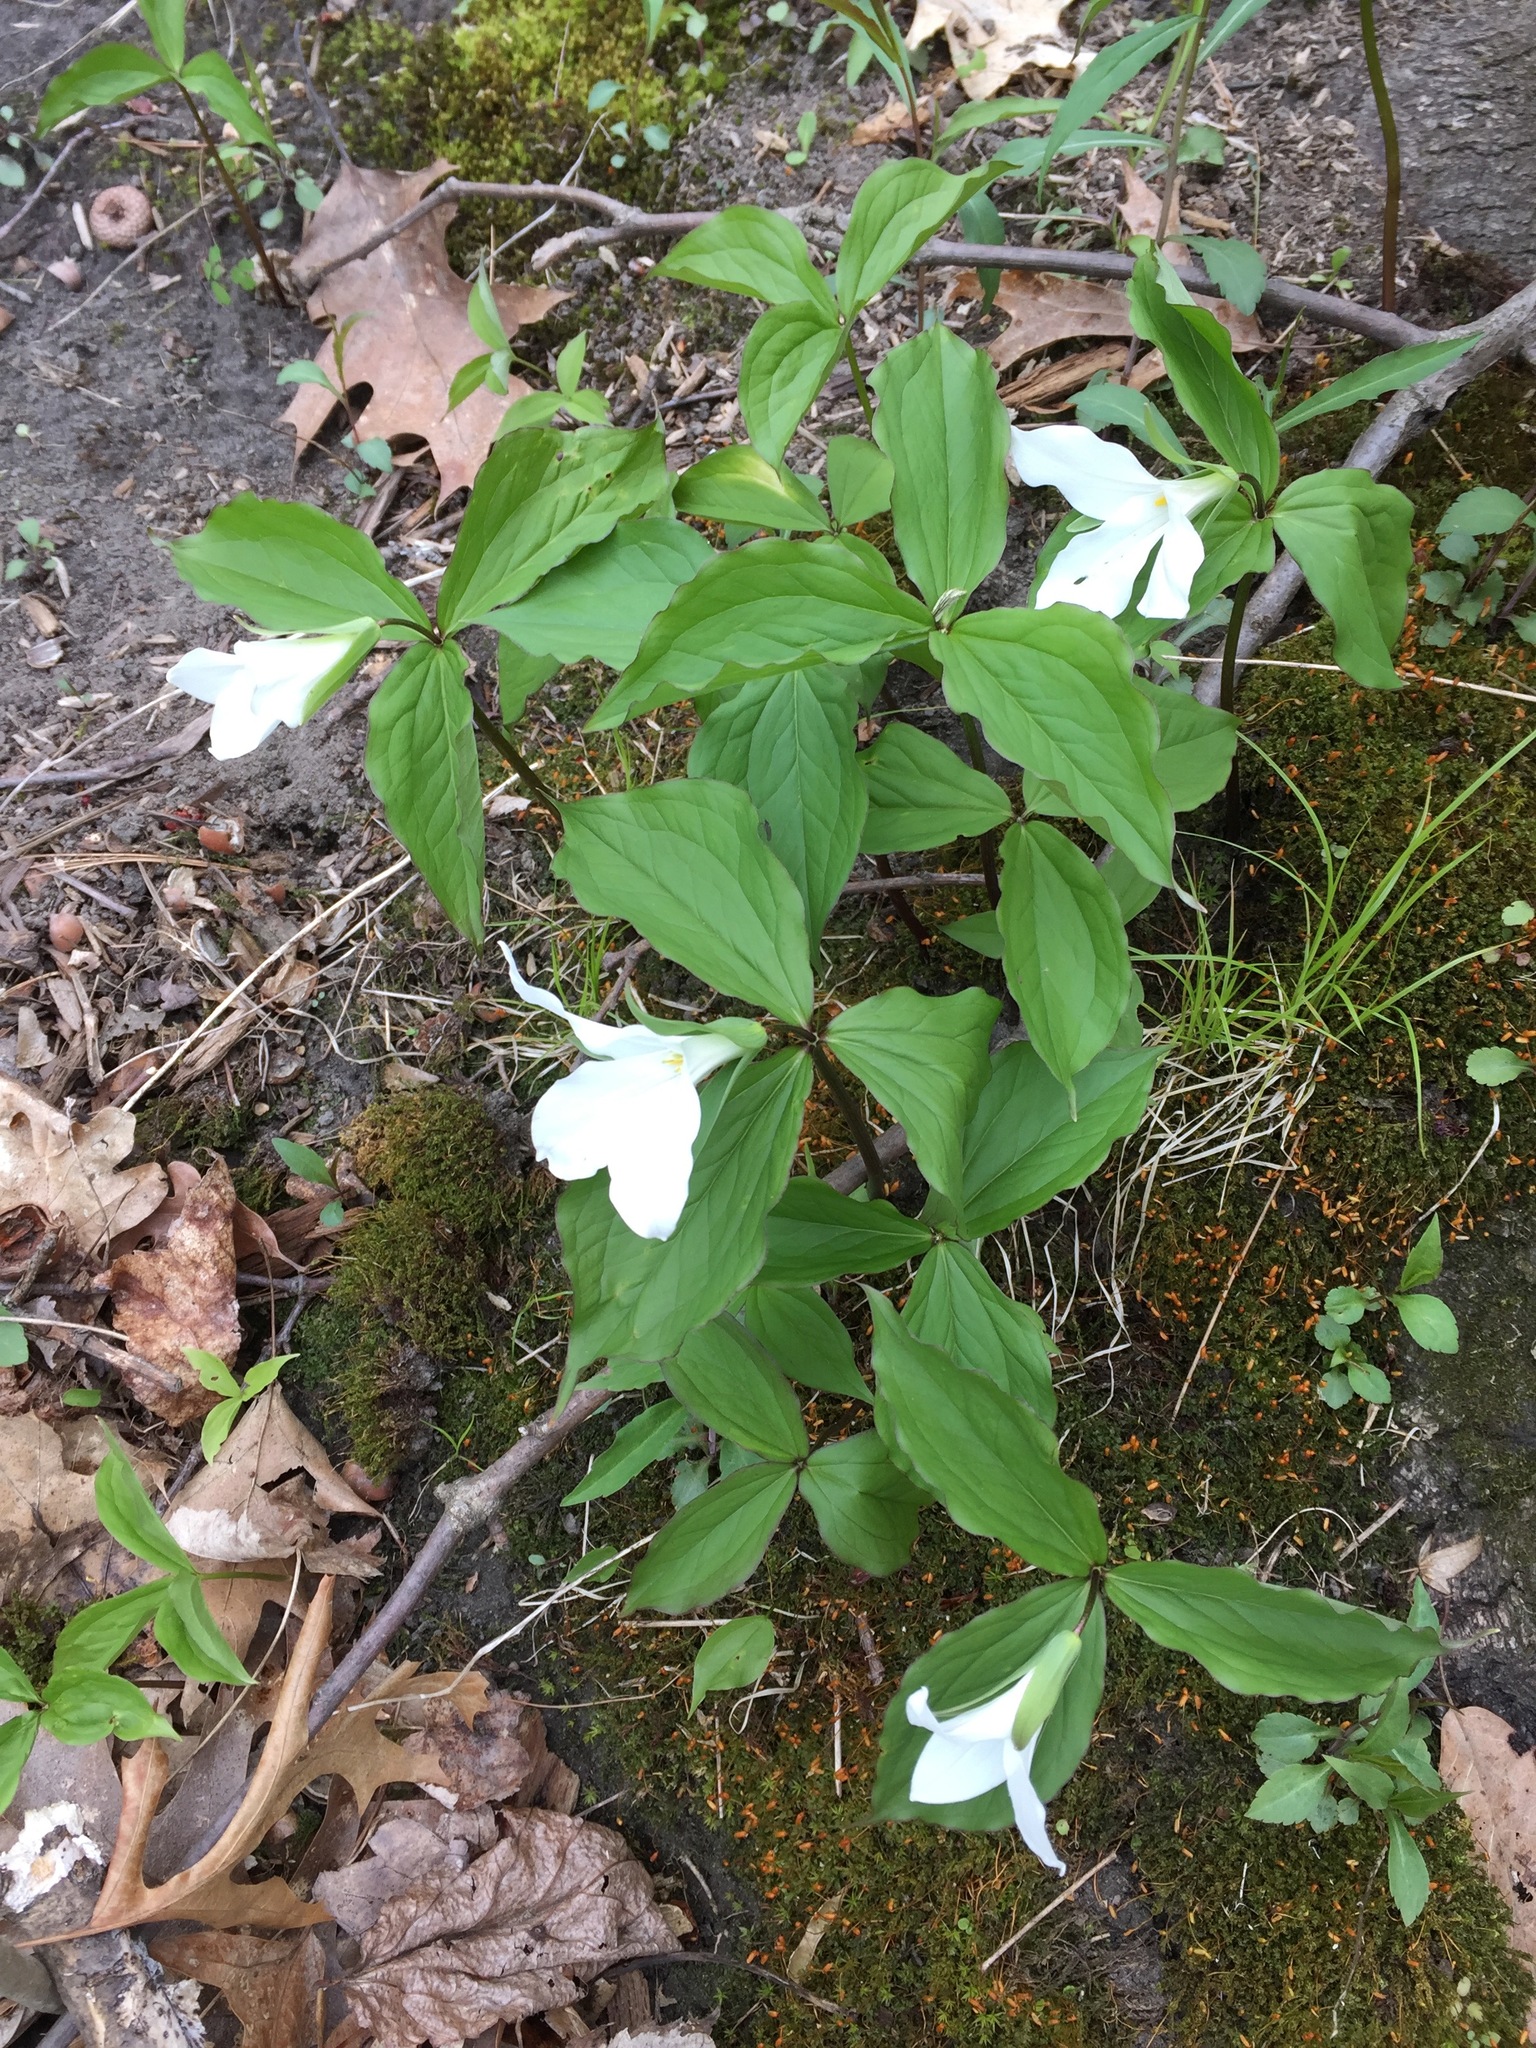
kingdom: Plantae
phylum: Tracheophyta
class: Liliopsida
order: Liliales
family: Melanthiaceae
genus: Trillium
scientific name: Trillium grandiflorum
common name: Great white trillium
